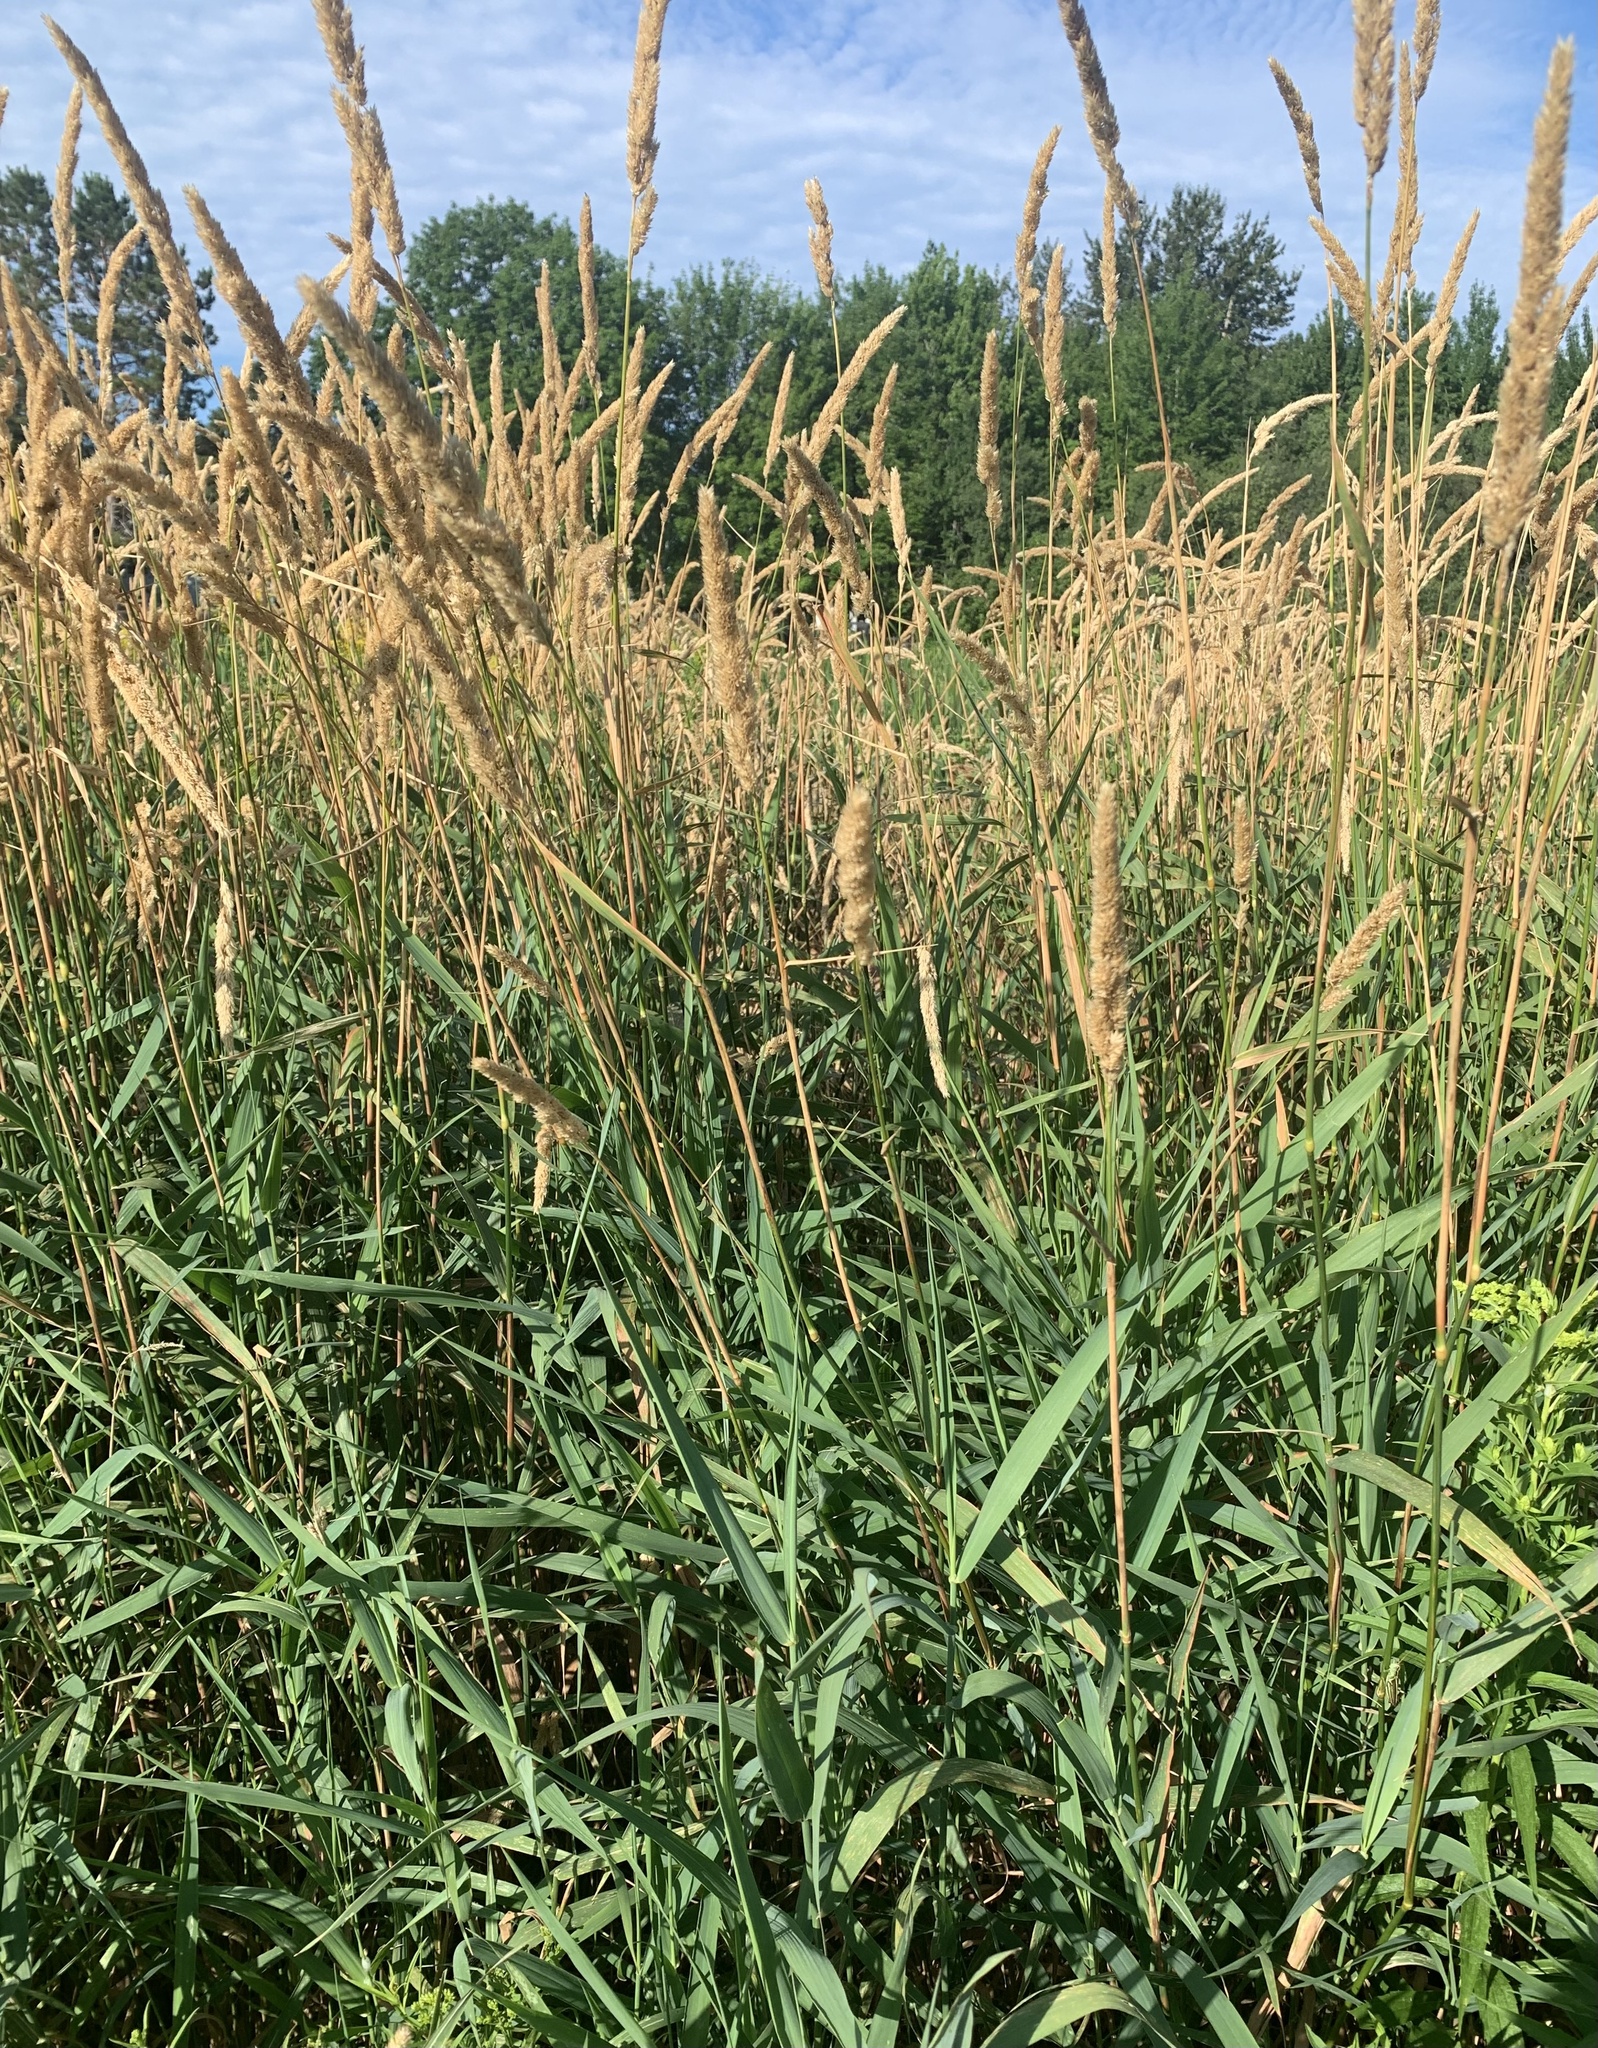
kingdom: Plantae
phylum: Tracheophyta
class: Liliopsida
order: Poales
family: Poaceae
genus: Phalaris
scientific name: Phalaris arundinacea
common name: Reed canary-grass
